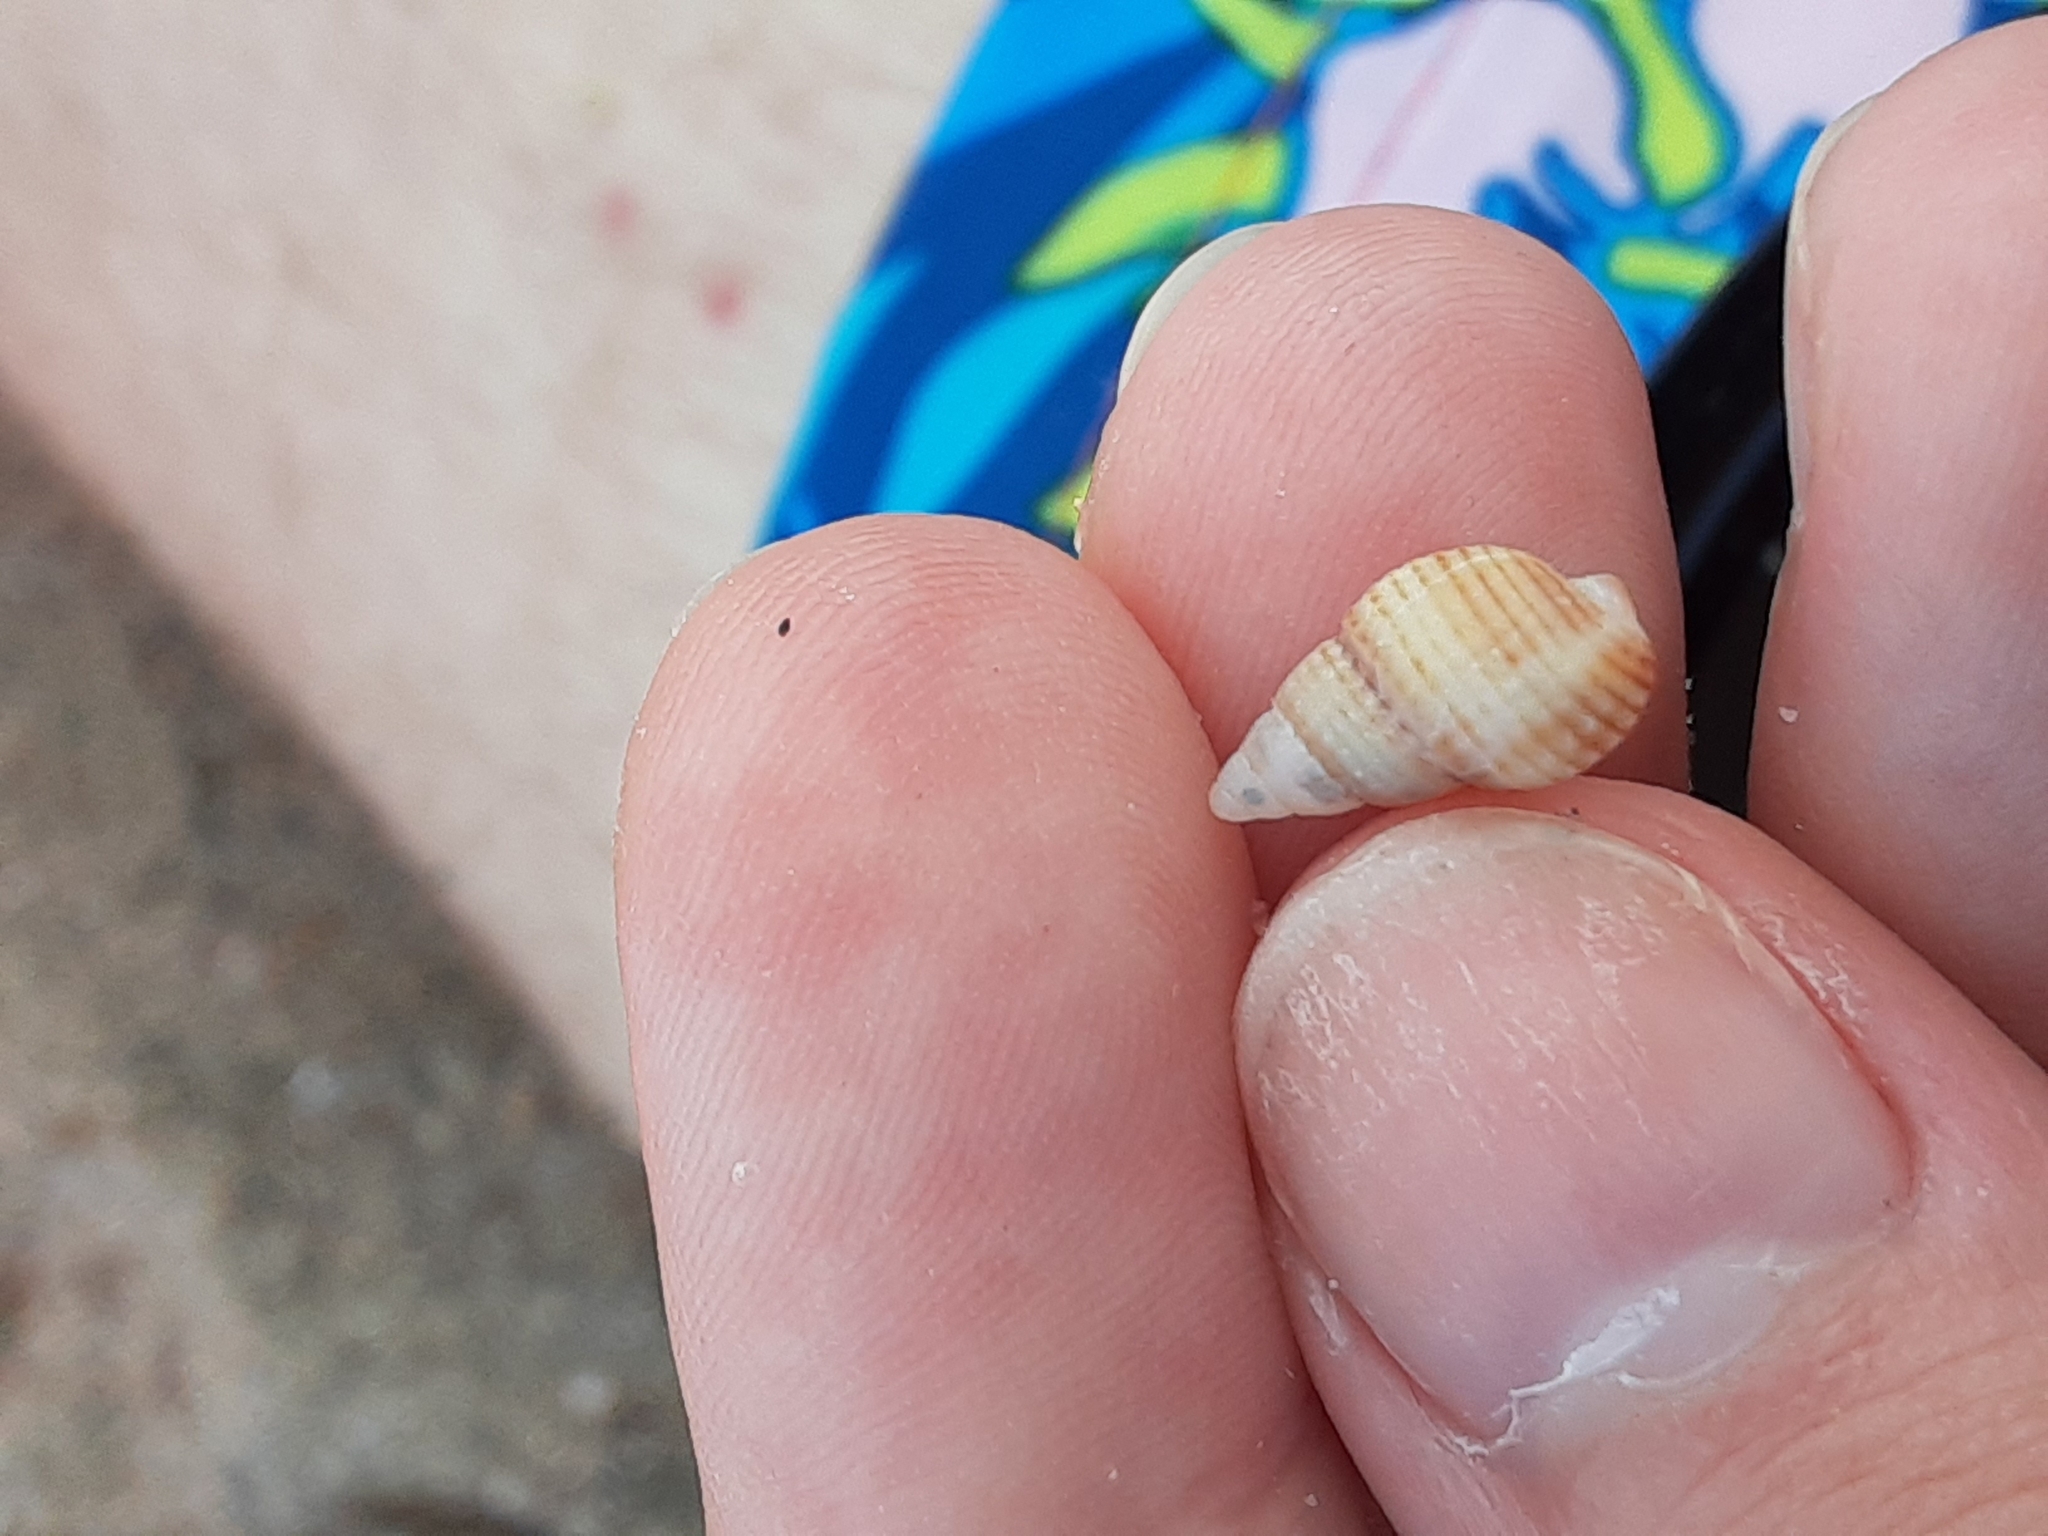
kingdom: Animalia
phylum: Mollusca
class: Gastropoda
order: Neogastropoda
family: Nassariidae
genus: Ilyanassa
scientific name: Ilyanassa trivittata
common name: Three-line mudsnail
